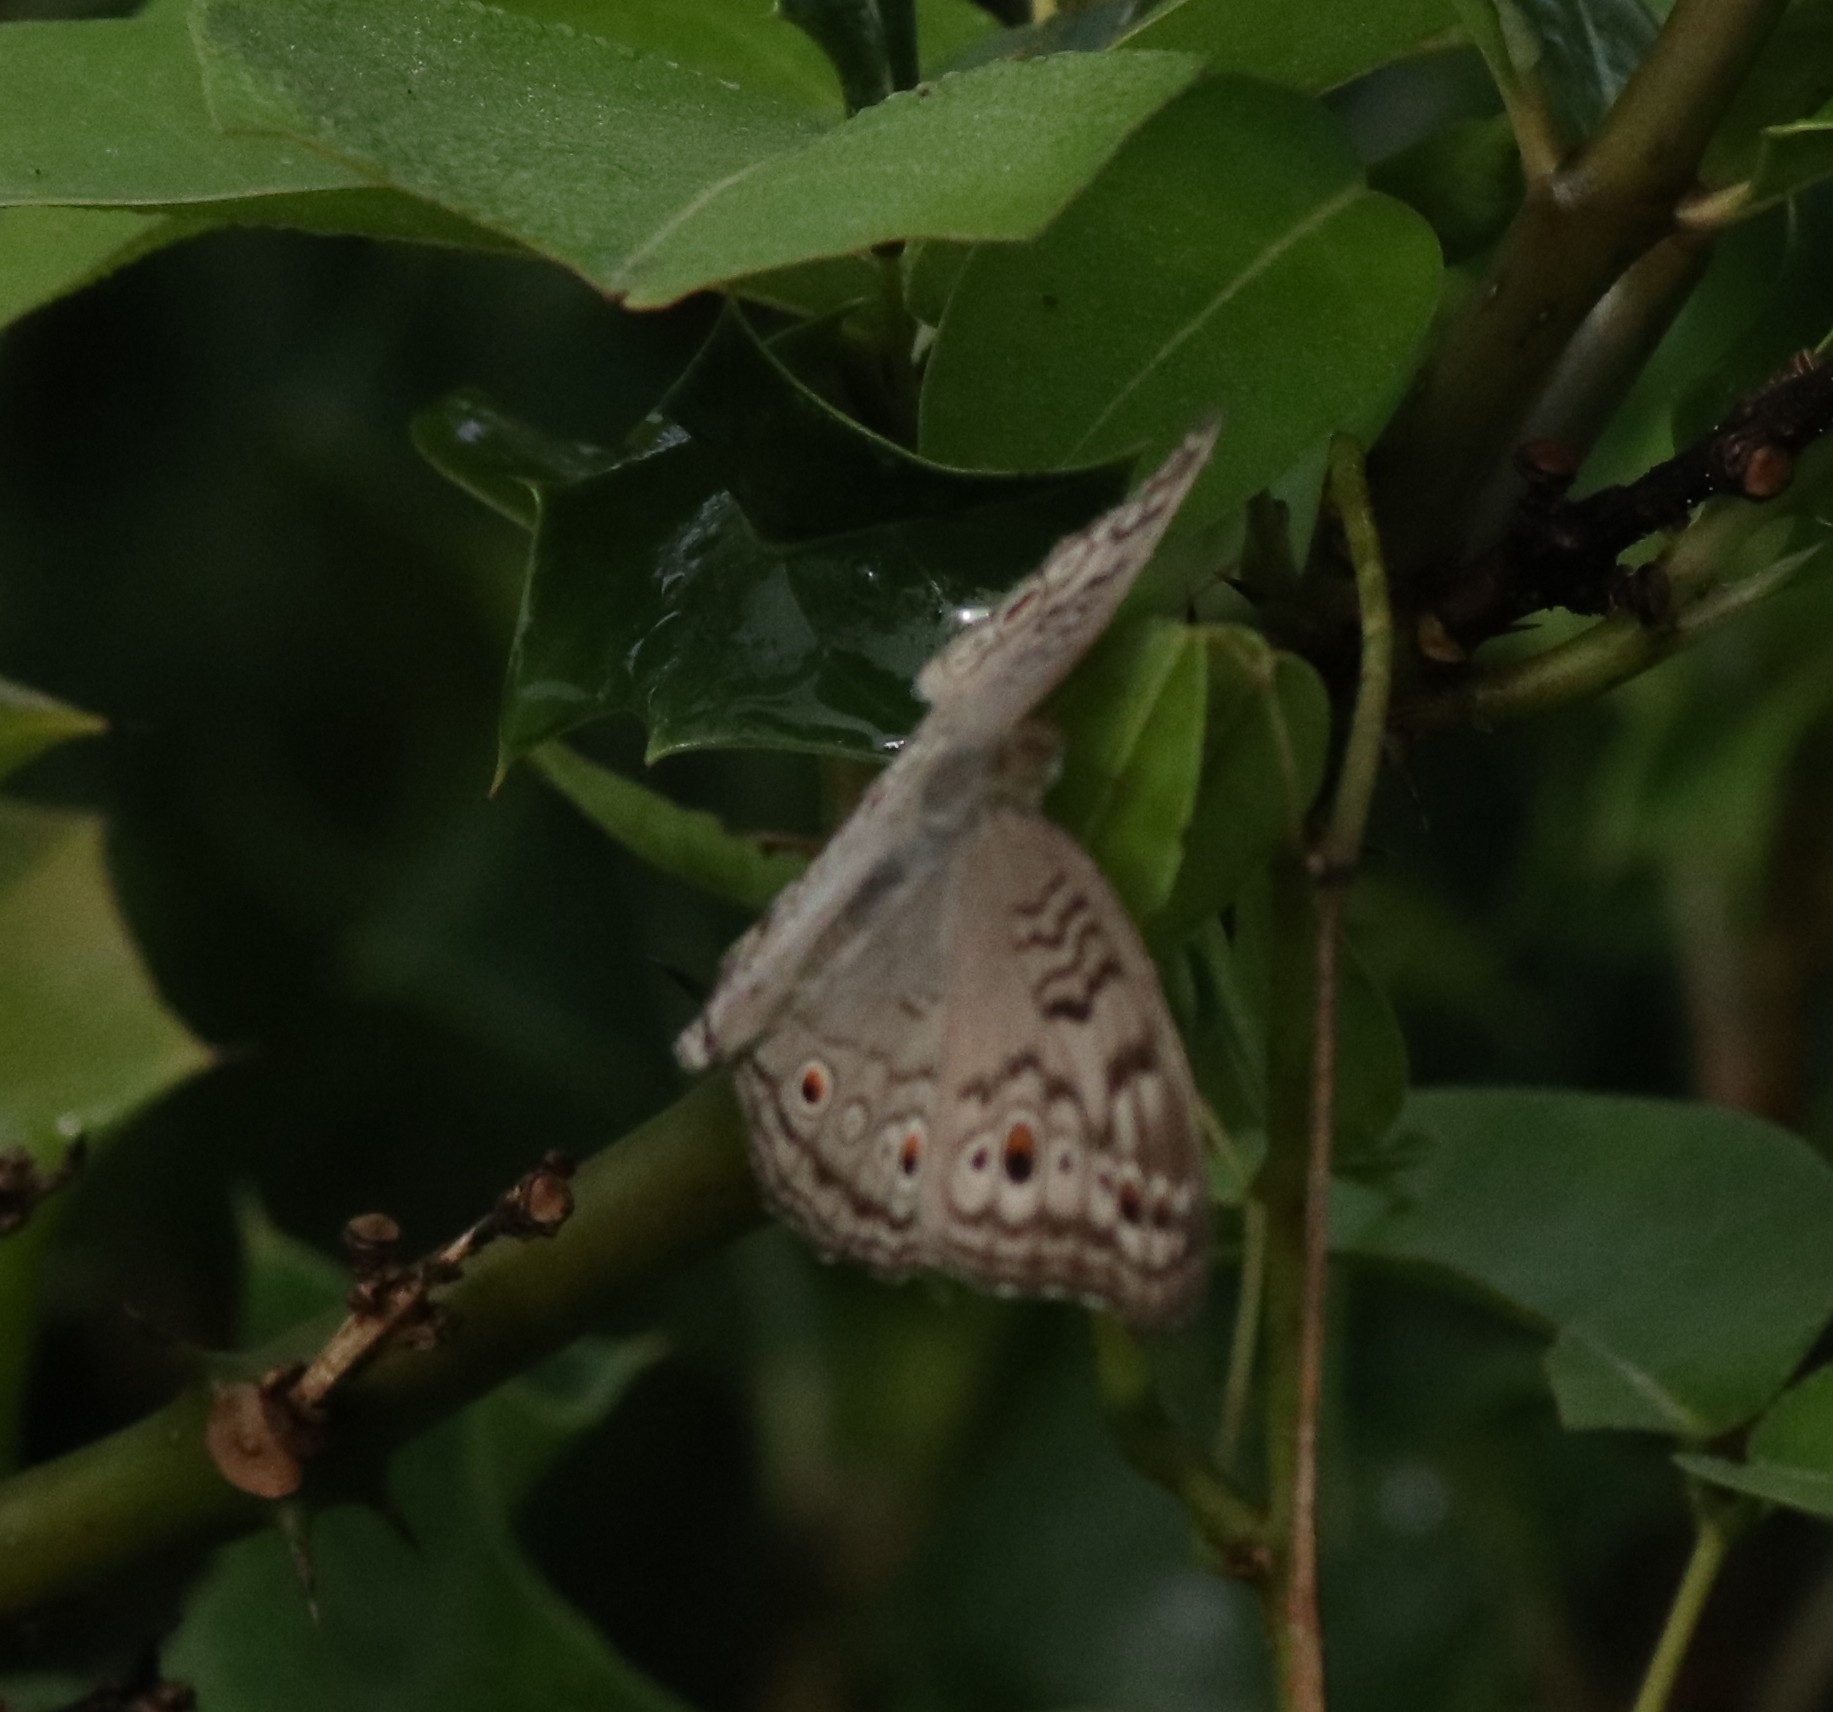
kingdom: Animalia
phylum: Arthropoda
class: Insecta
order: Lepidoptera
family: Nymphalidae
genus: Junonia
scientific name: Junonia atlites
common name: Grey pansy
